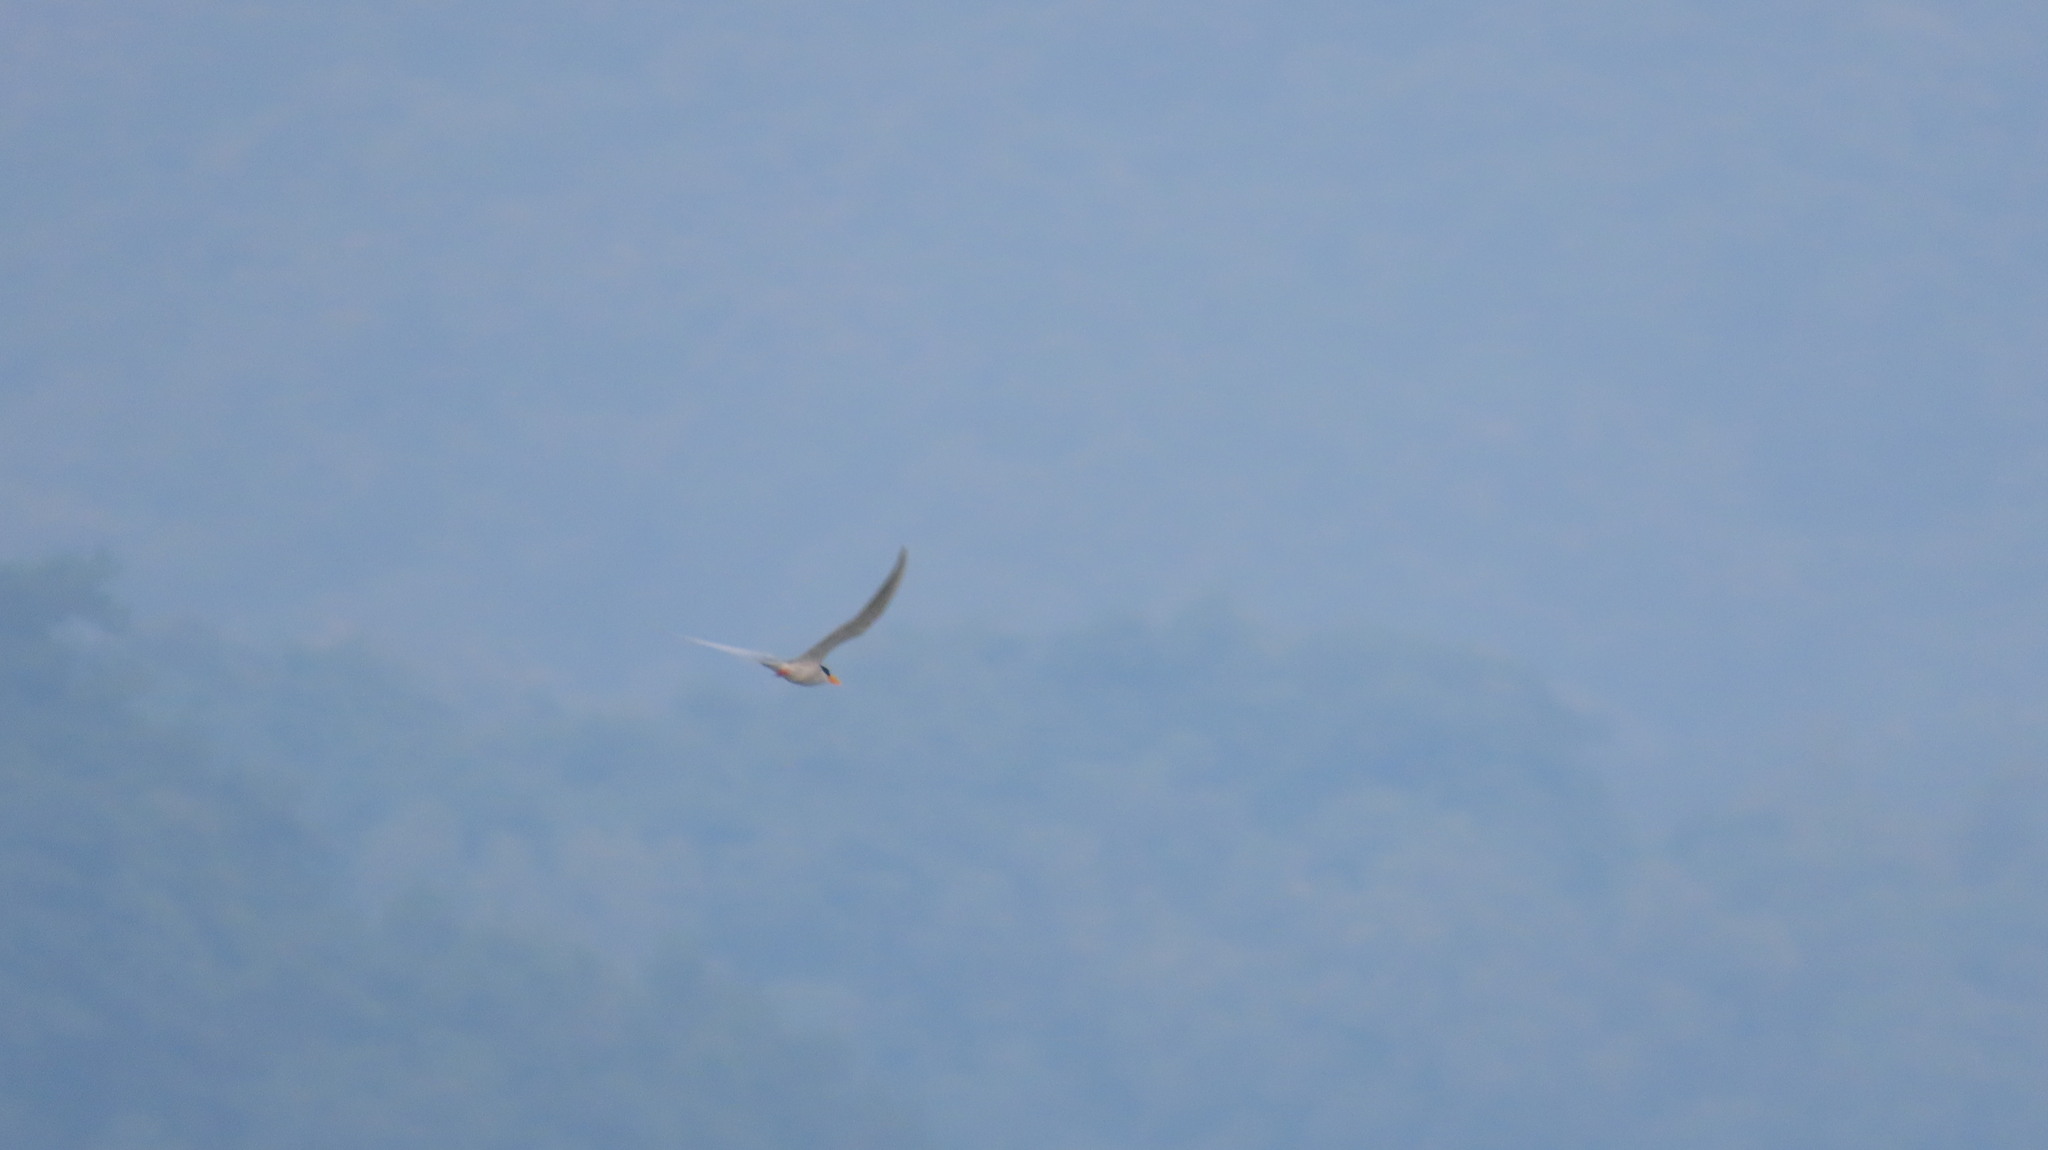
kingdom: Animalia
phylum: Chordata
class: Aves
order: Charadriiformes
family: Laridae
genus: Sterna
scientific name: Sterna aurantia
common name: River tern
